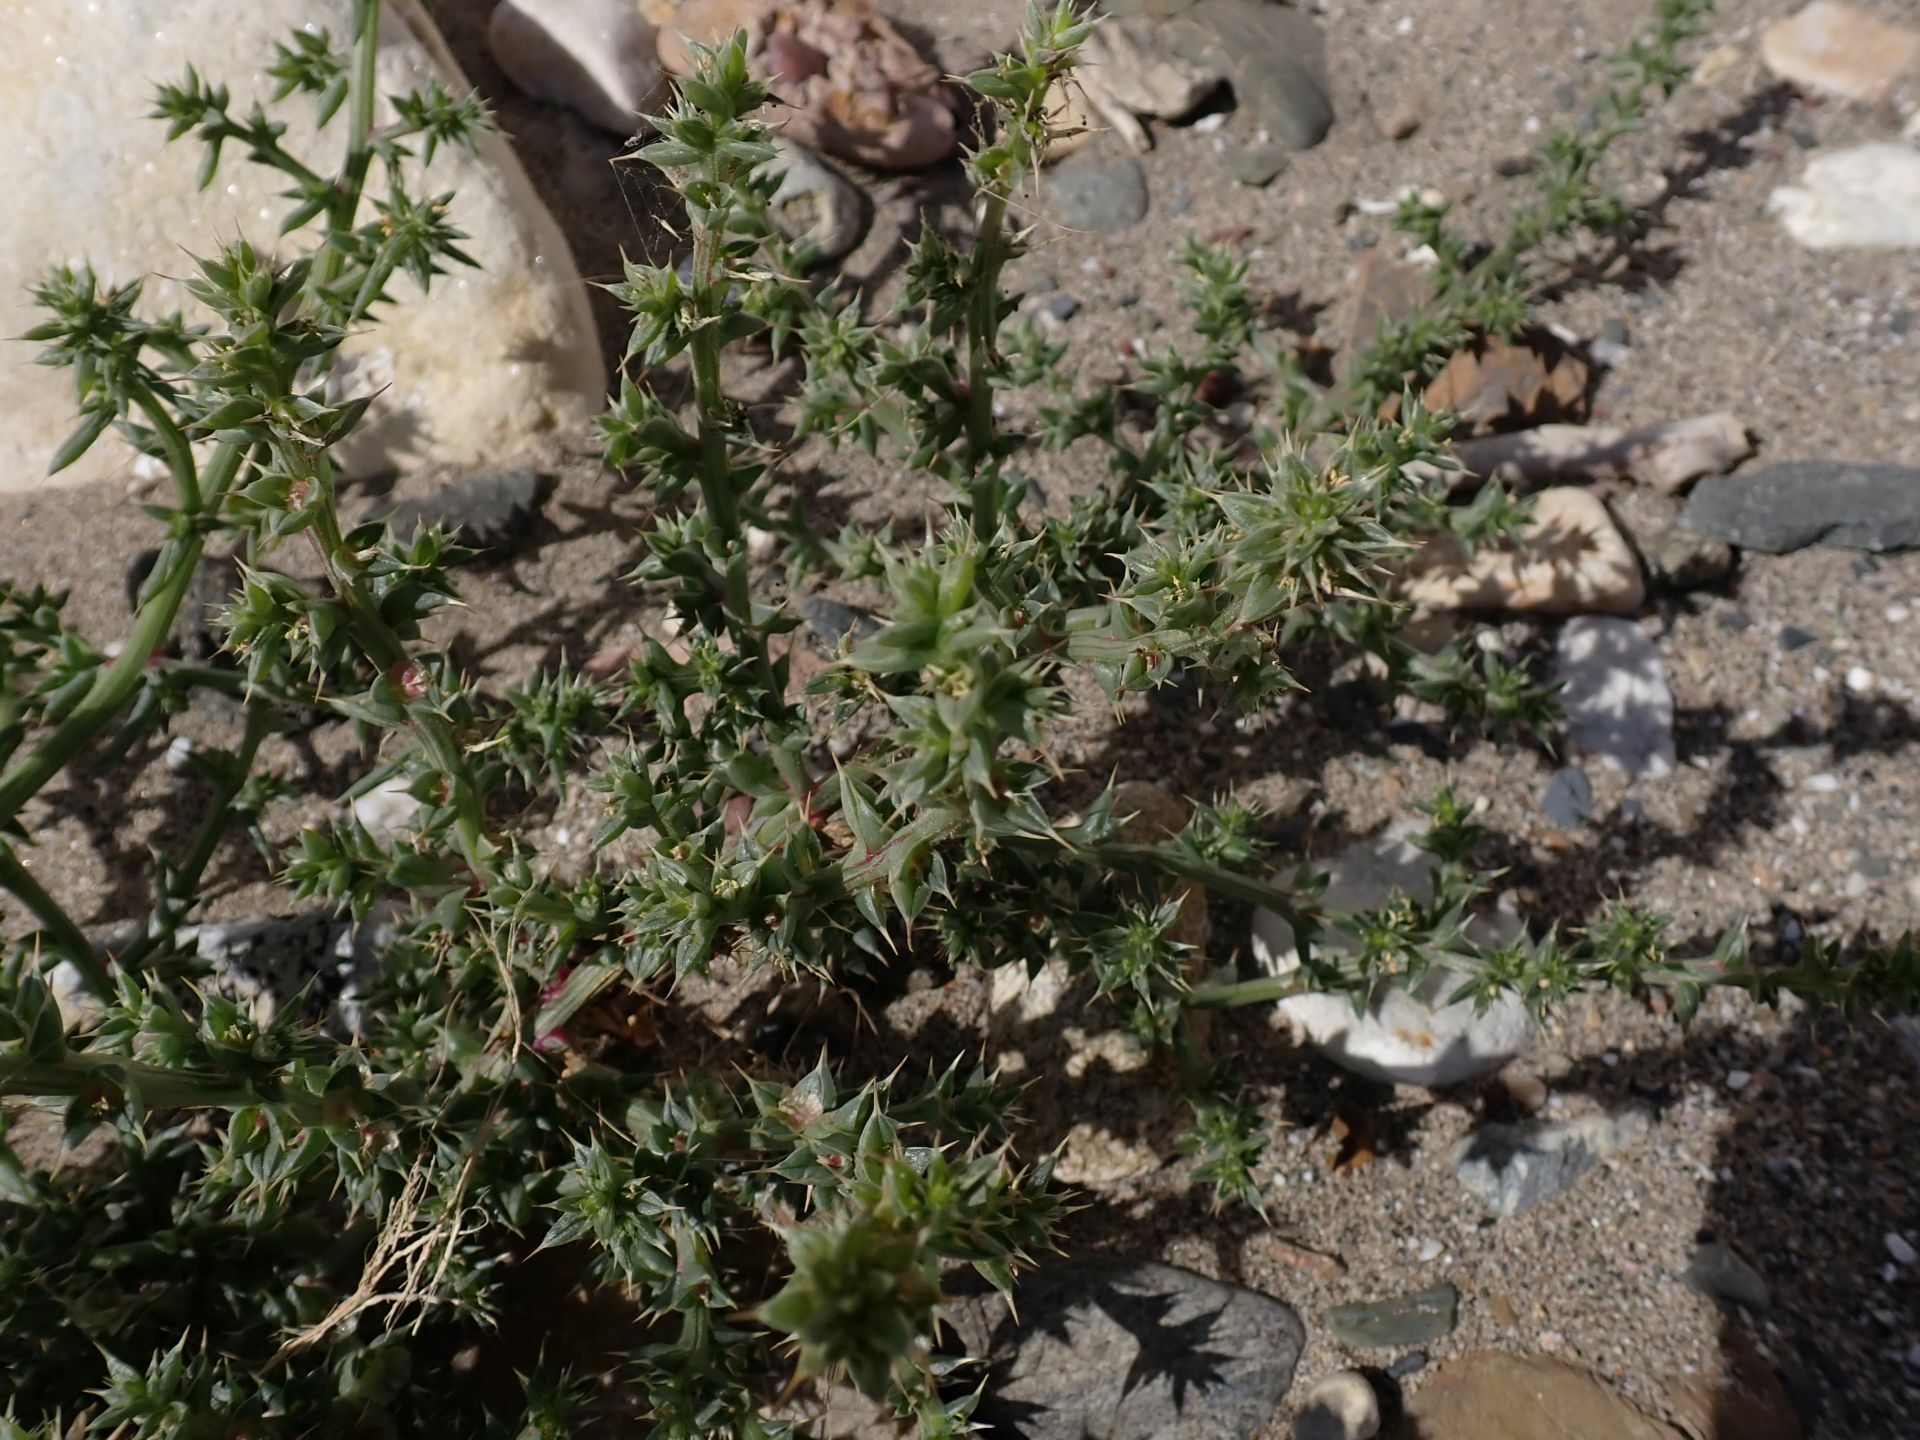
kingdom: Plantae
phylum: Tracheophyta
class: Magnoliopsida
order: Caryophyllales
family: Amaranthaceae
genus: Salsola
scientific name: Salsola kali
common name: Saltwort
